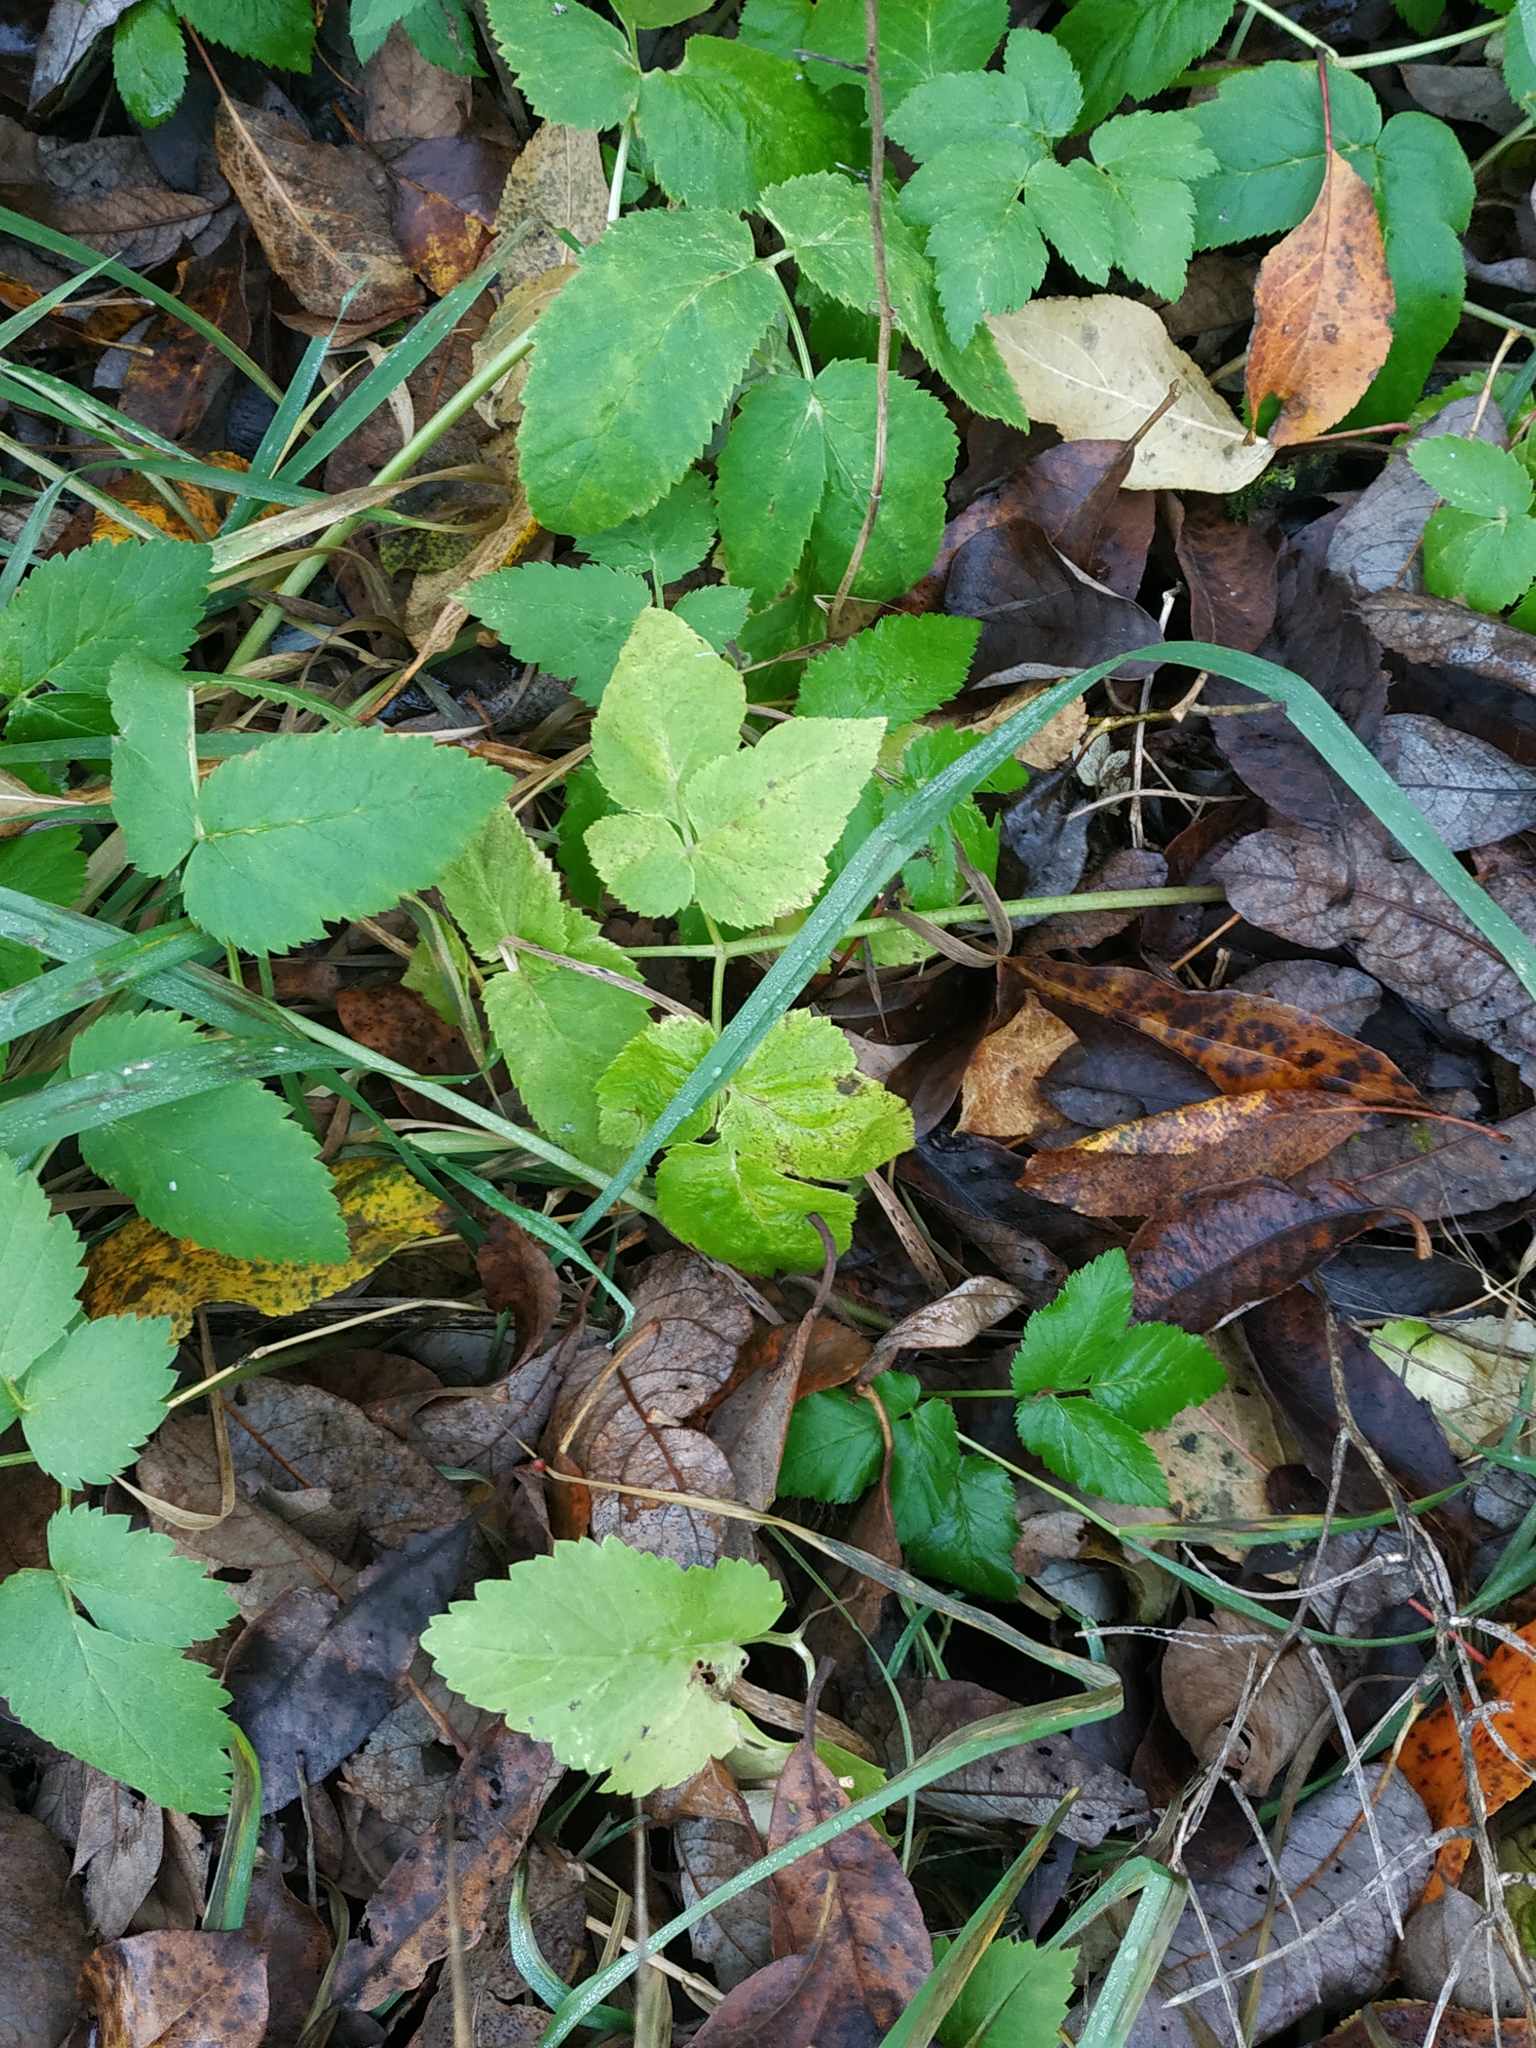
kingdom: Plantae
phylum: Tracheophyta
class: Magnoliopsida
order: Apiales
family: Apiaceae
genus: Aegopodium
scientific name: Aegopodium podagraria
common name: Ground-elder
